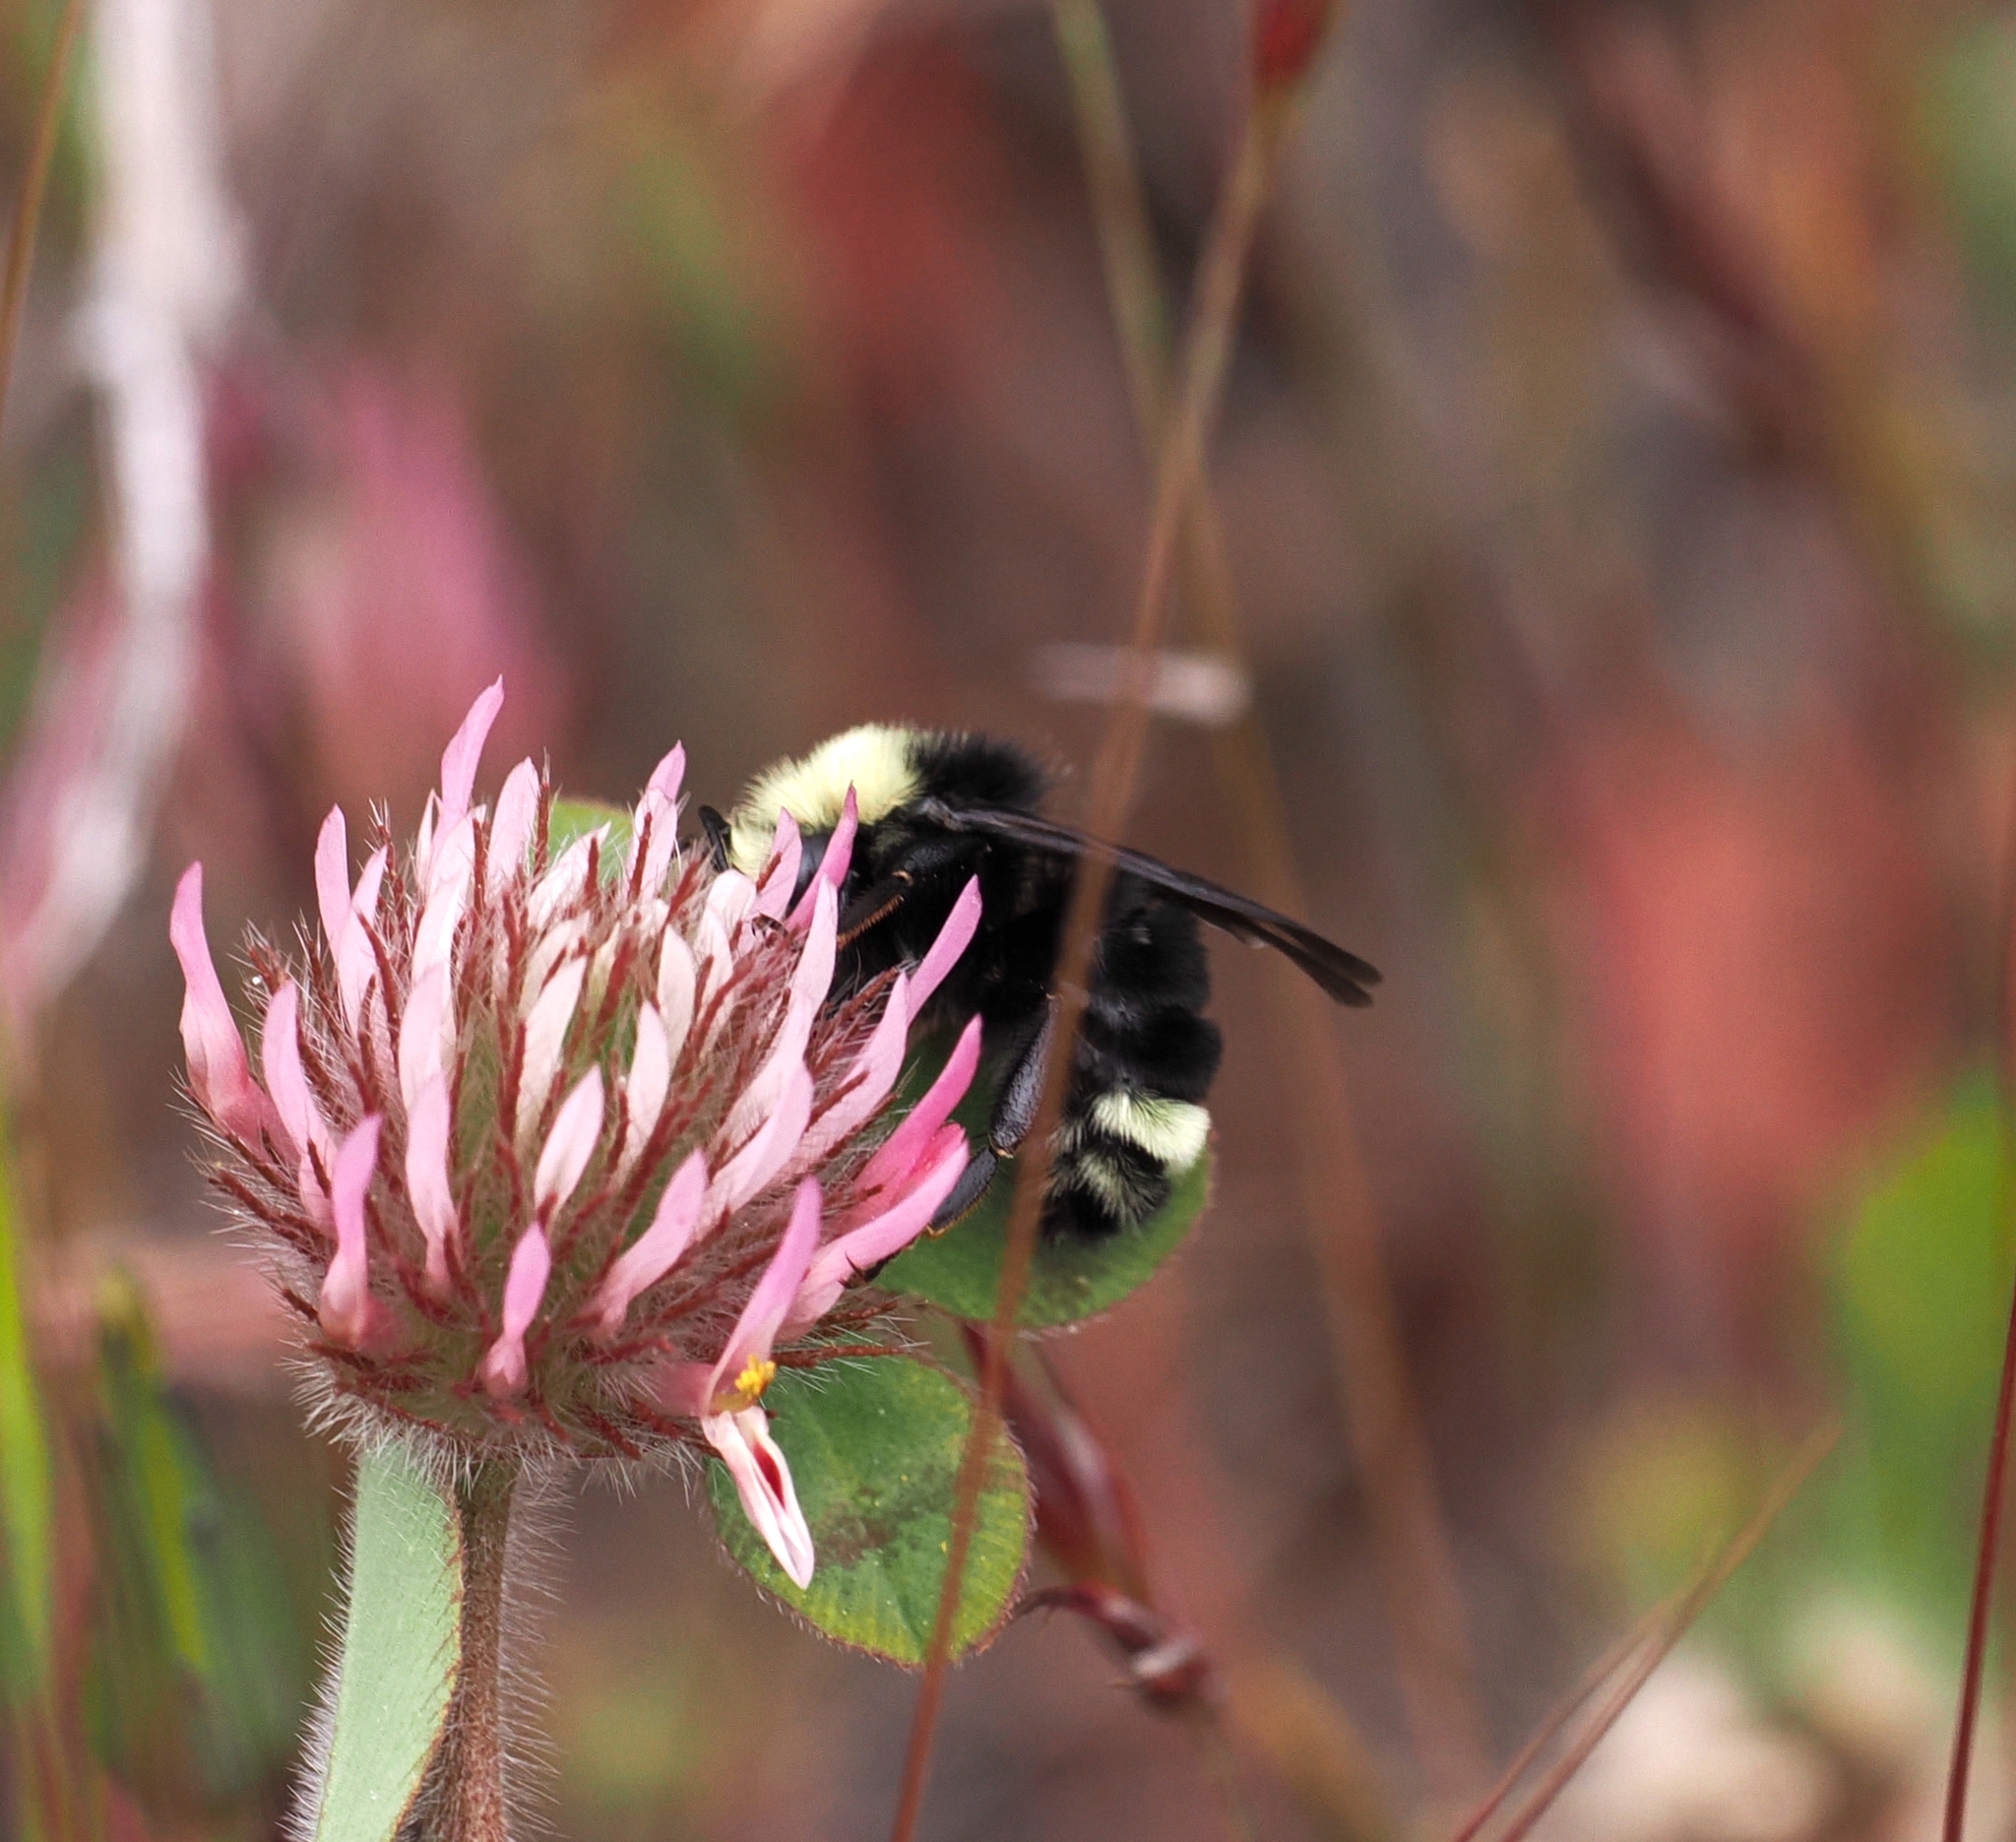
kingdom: Animalia
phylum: Arthropoda
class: Insecta
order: Hymenoptera
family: Apidae
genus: Bombus
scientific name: Bombus vosnesenskii
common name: Vosnesensky bumble bee
